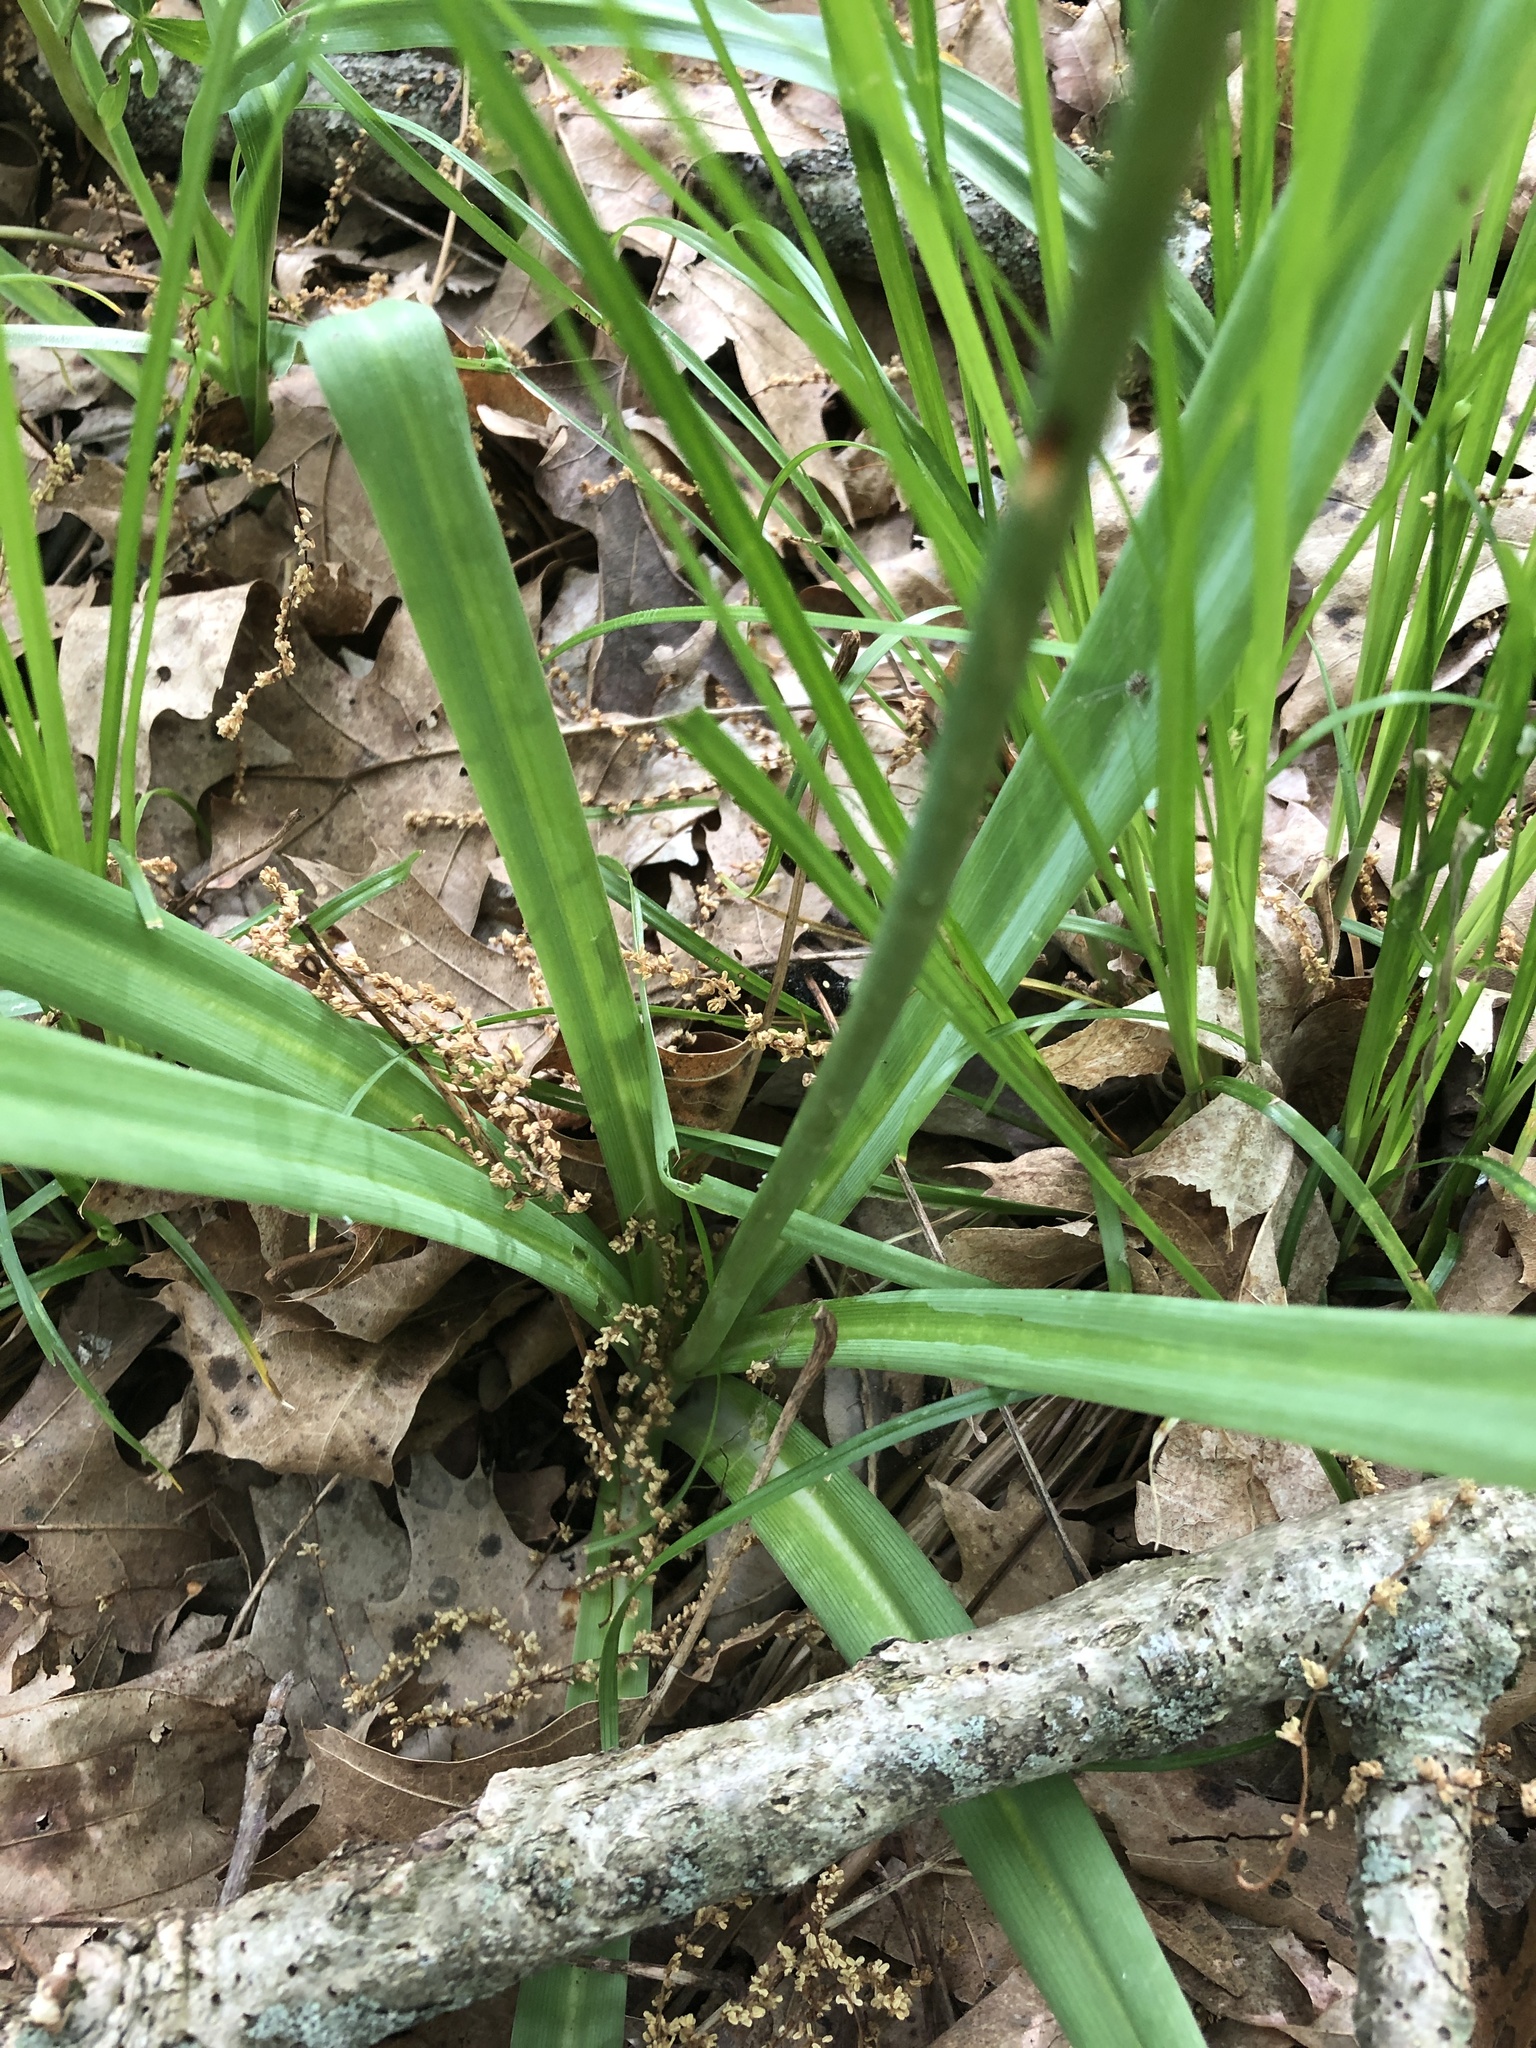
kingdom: Plantae
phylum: Tracheophyta
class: Liliopsida
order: Asparagales
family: Asparagaceae
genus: Camassia
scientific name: Camassia scilloides
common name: Wild hyacinth
